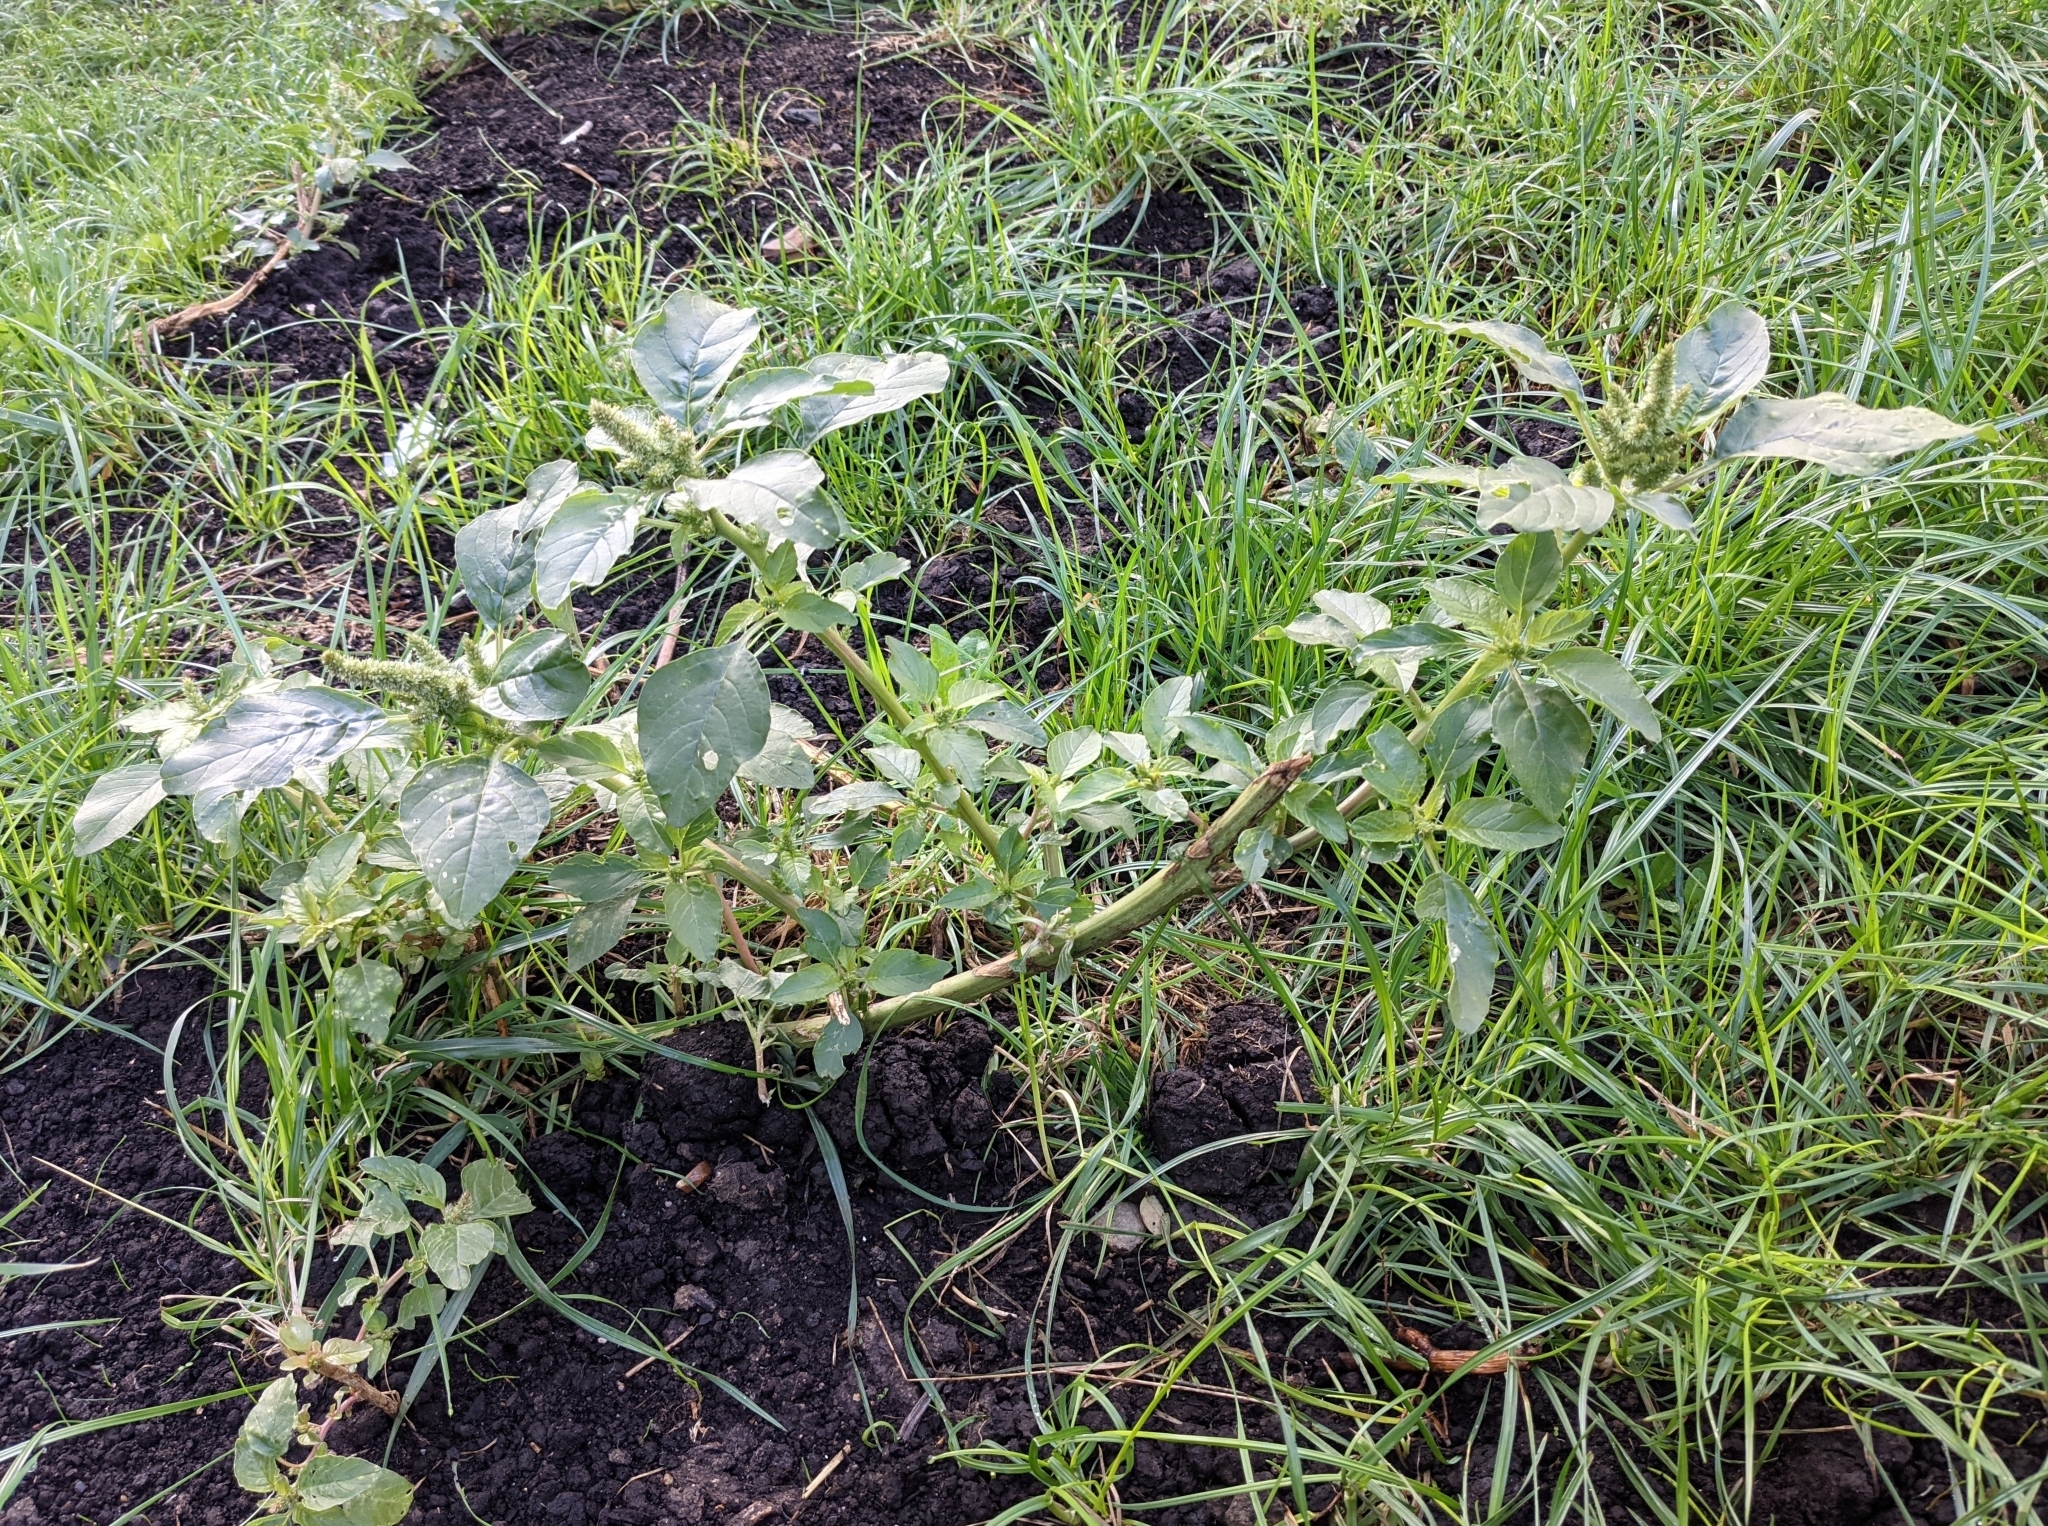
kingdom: Plantae
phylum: Tracheophyta
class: Magnoliopsida
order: Caryophyllales
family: Amaranthaceae
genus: Amaranthus
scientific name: Amaranthus retroflexus
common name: Redroot amaranth
